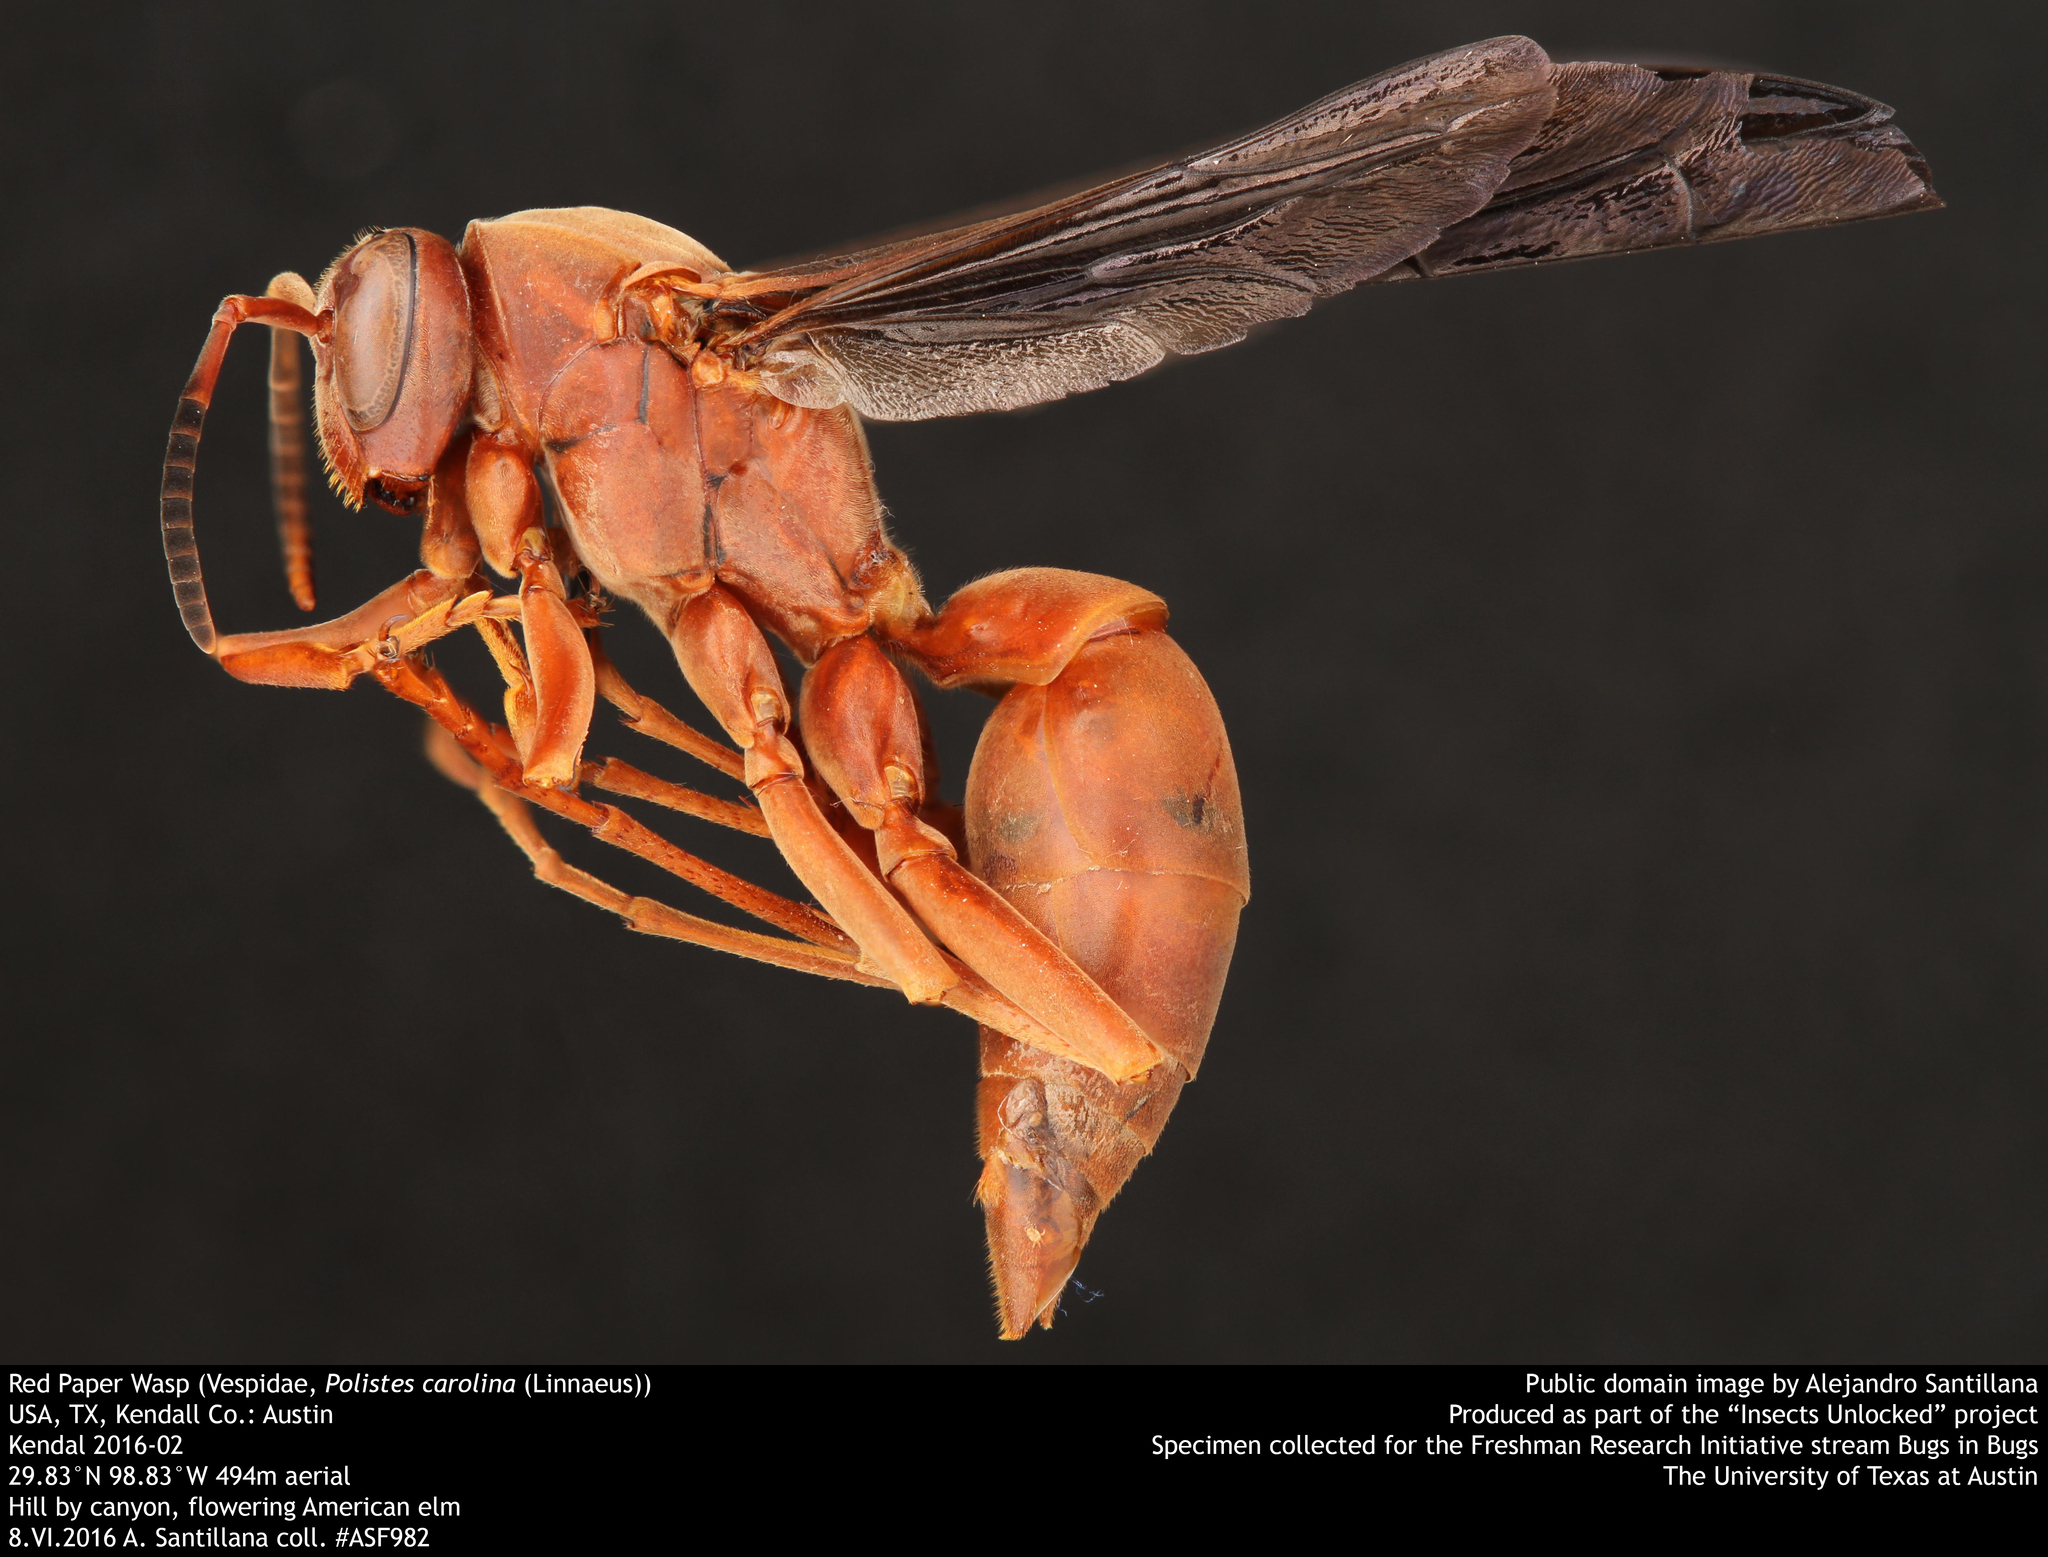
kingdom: Animalia
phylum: Arthropoda
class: Insecta
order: Hymenoptera
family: Eumenidae
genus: Polistes
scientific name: Polistes carolina
